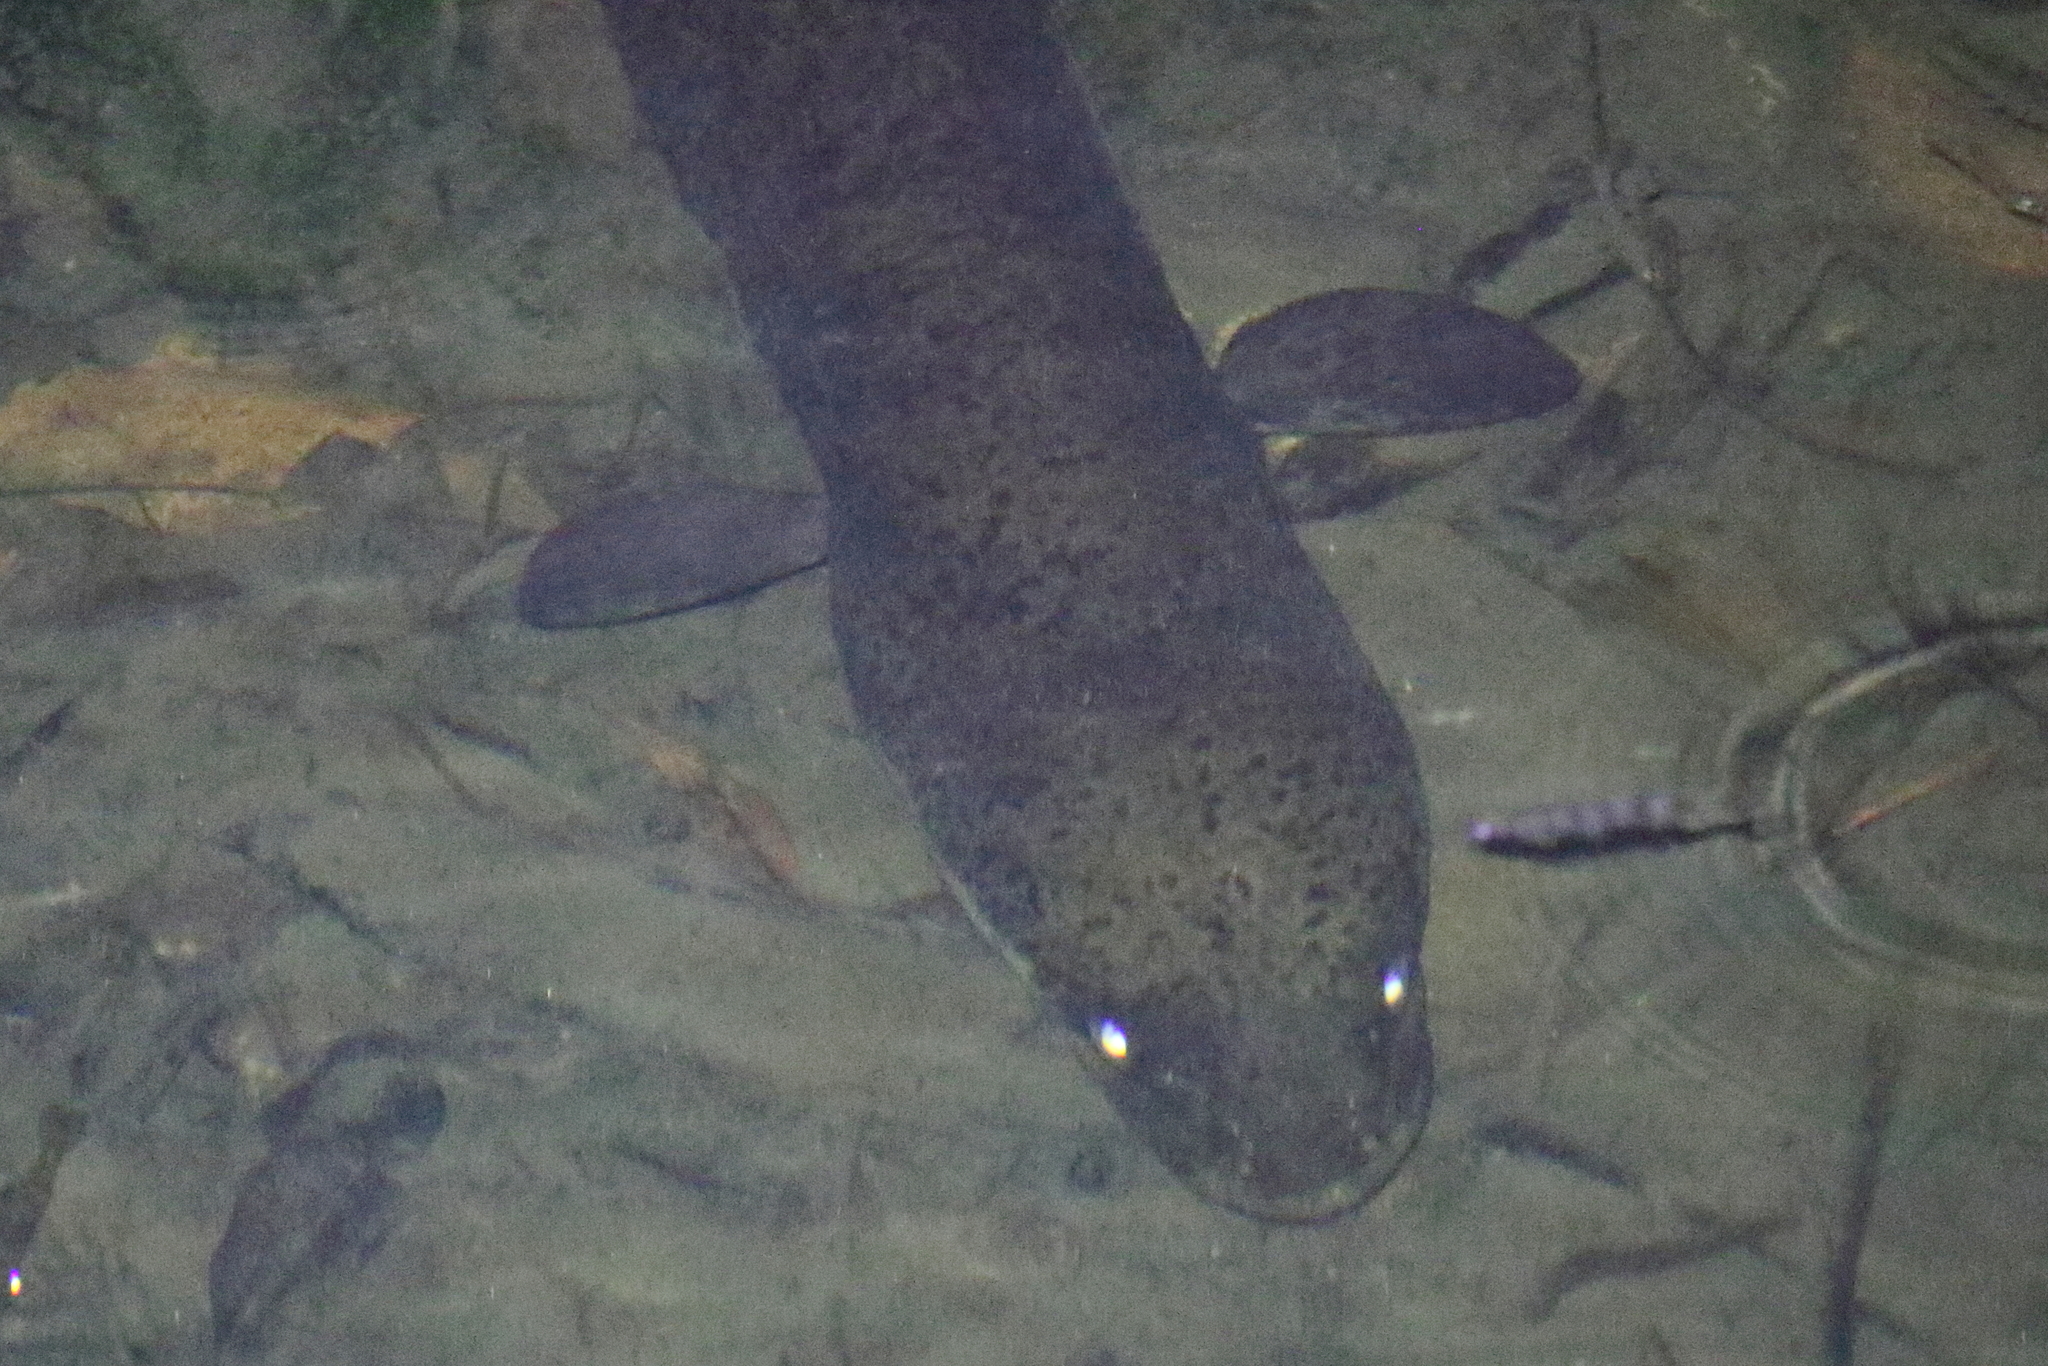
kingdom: Animalia
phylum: Chordata
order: Anguilliformes
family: Anguillidae
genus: Anguilla
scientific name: Anguilla reinhardtii
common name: Longfin eel
